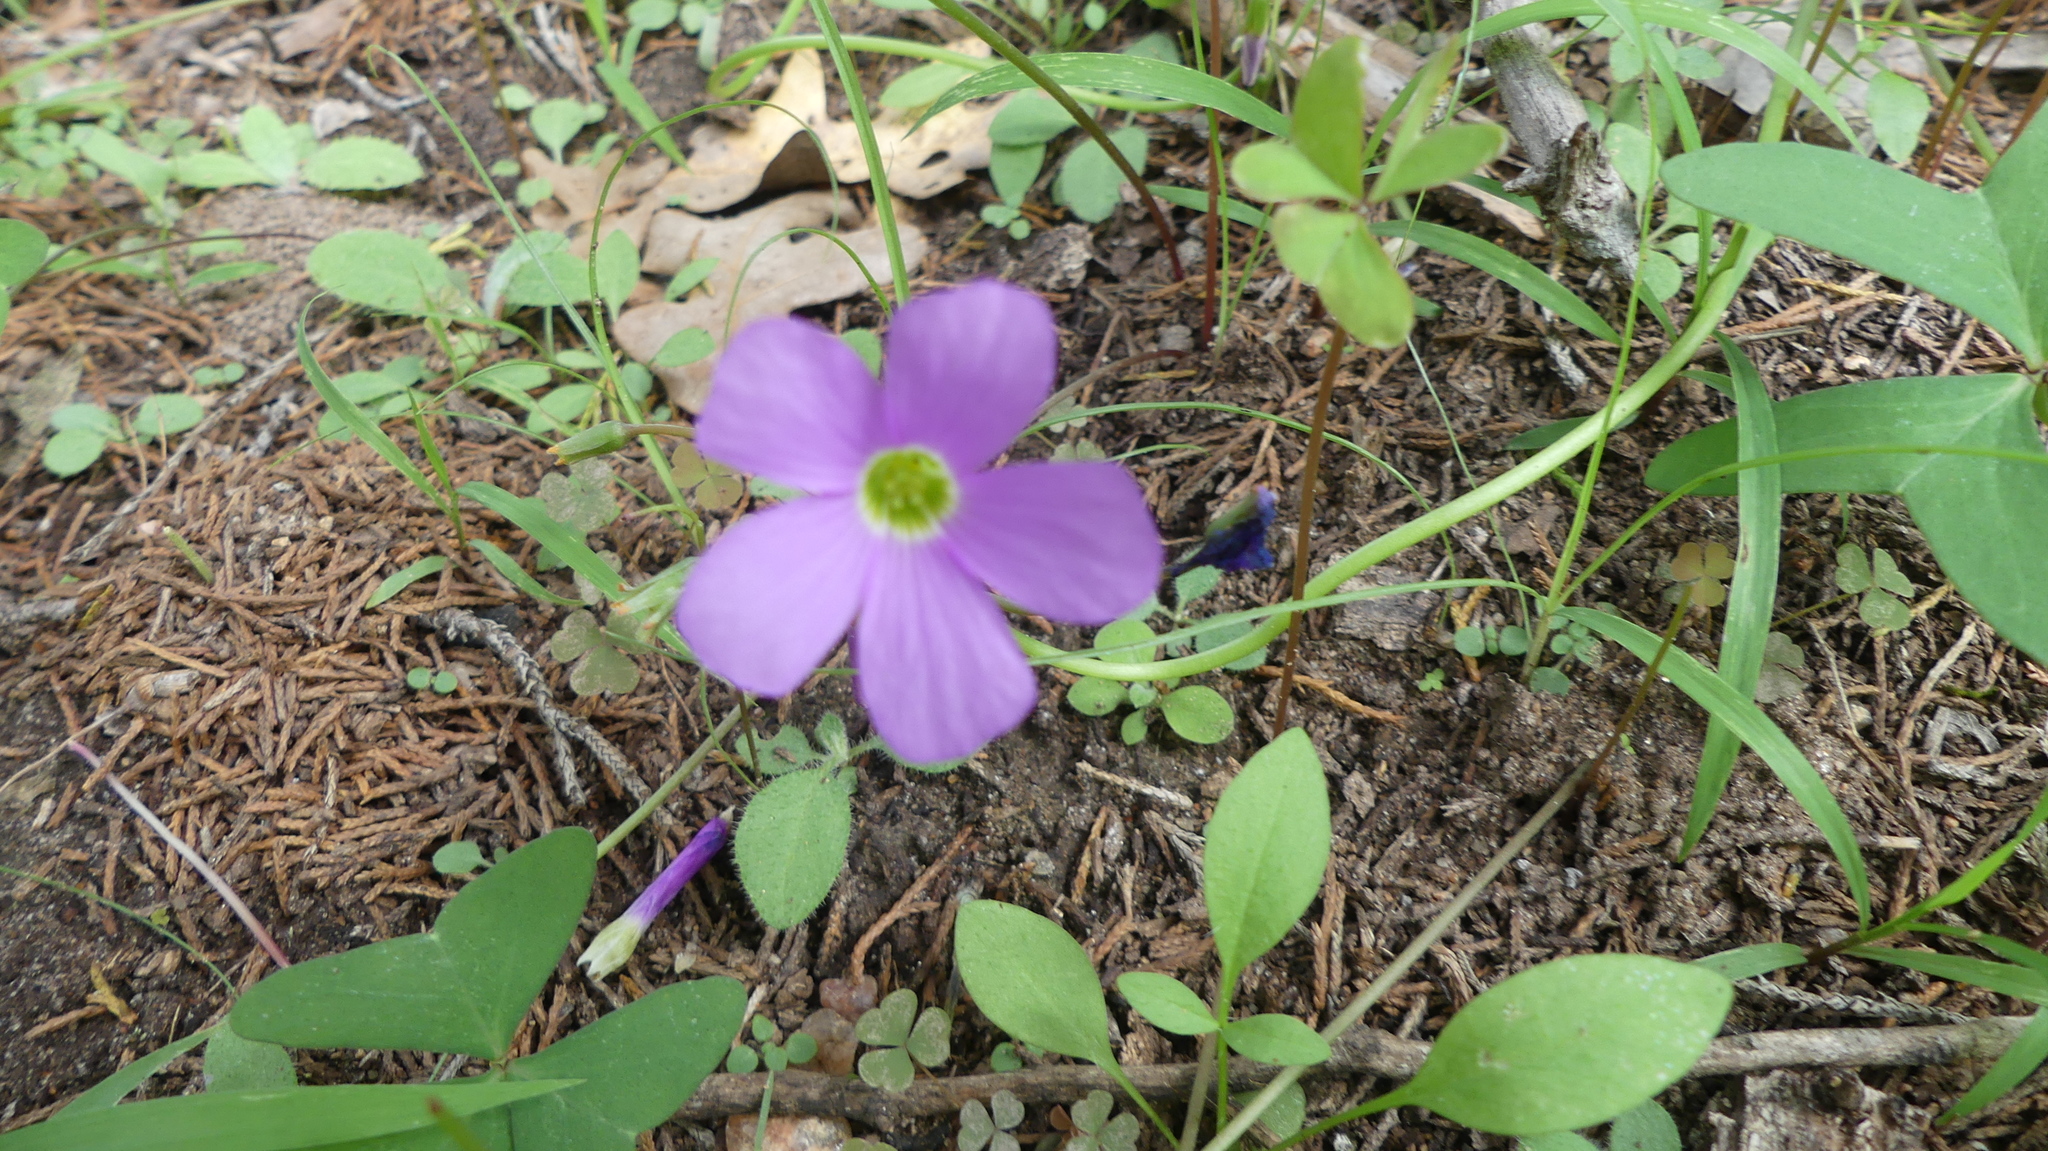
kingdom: Plantae
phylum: Tracheophyta
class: Magnoliopsida
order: Oxalidales
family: Oxalidaceae
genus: Oxalis
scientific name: Oxalis drummondii
